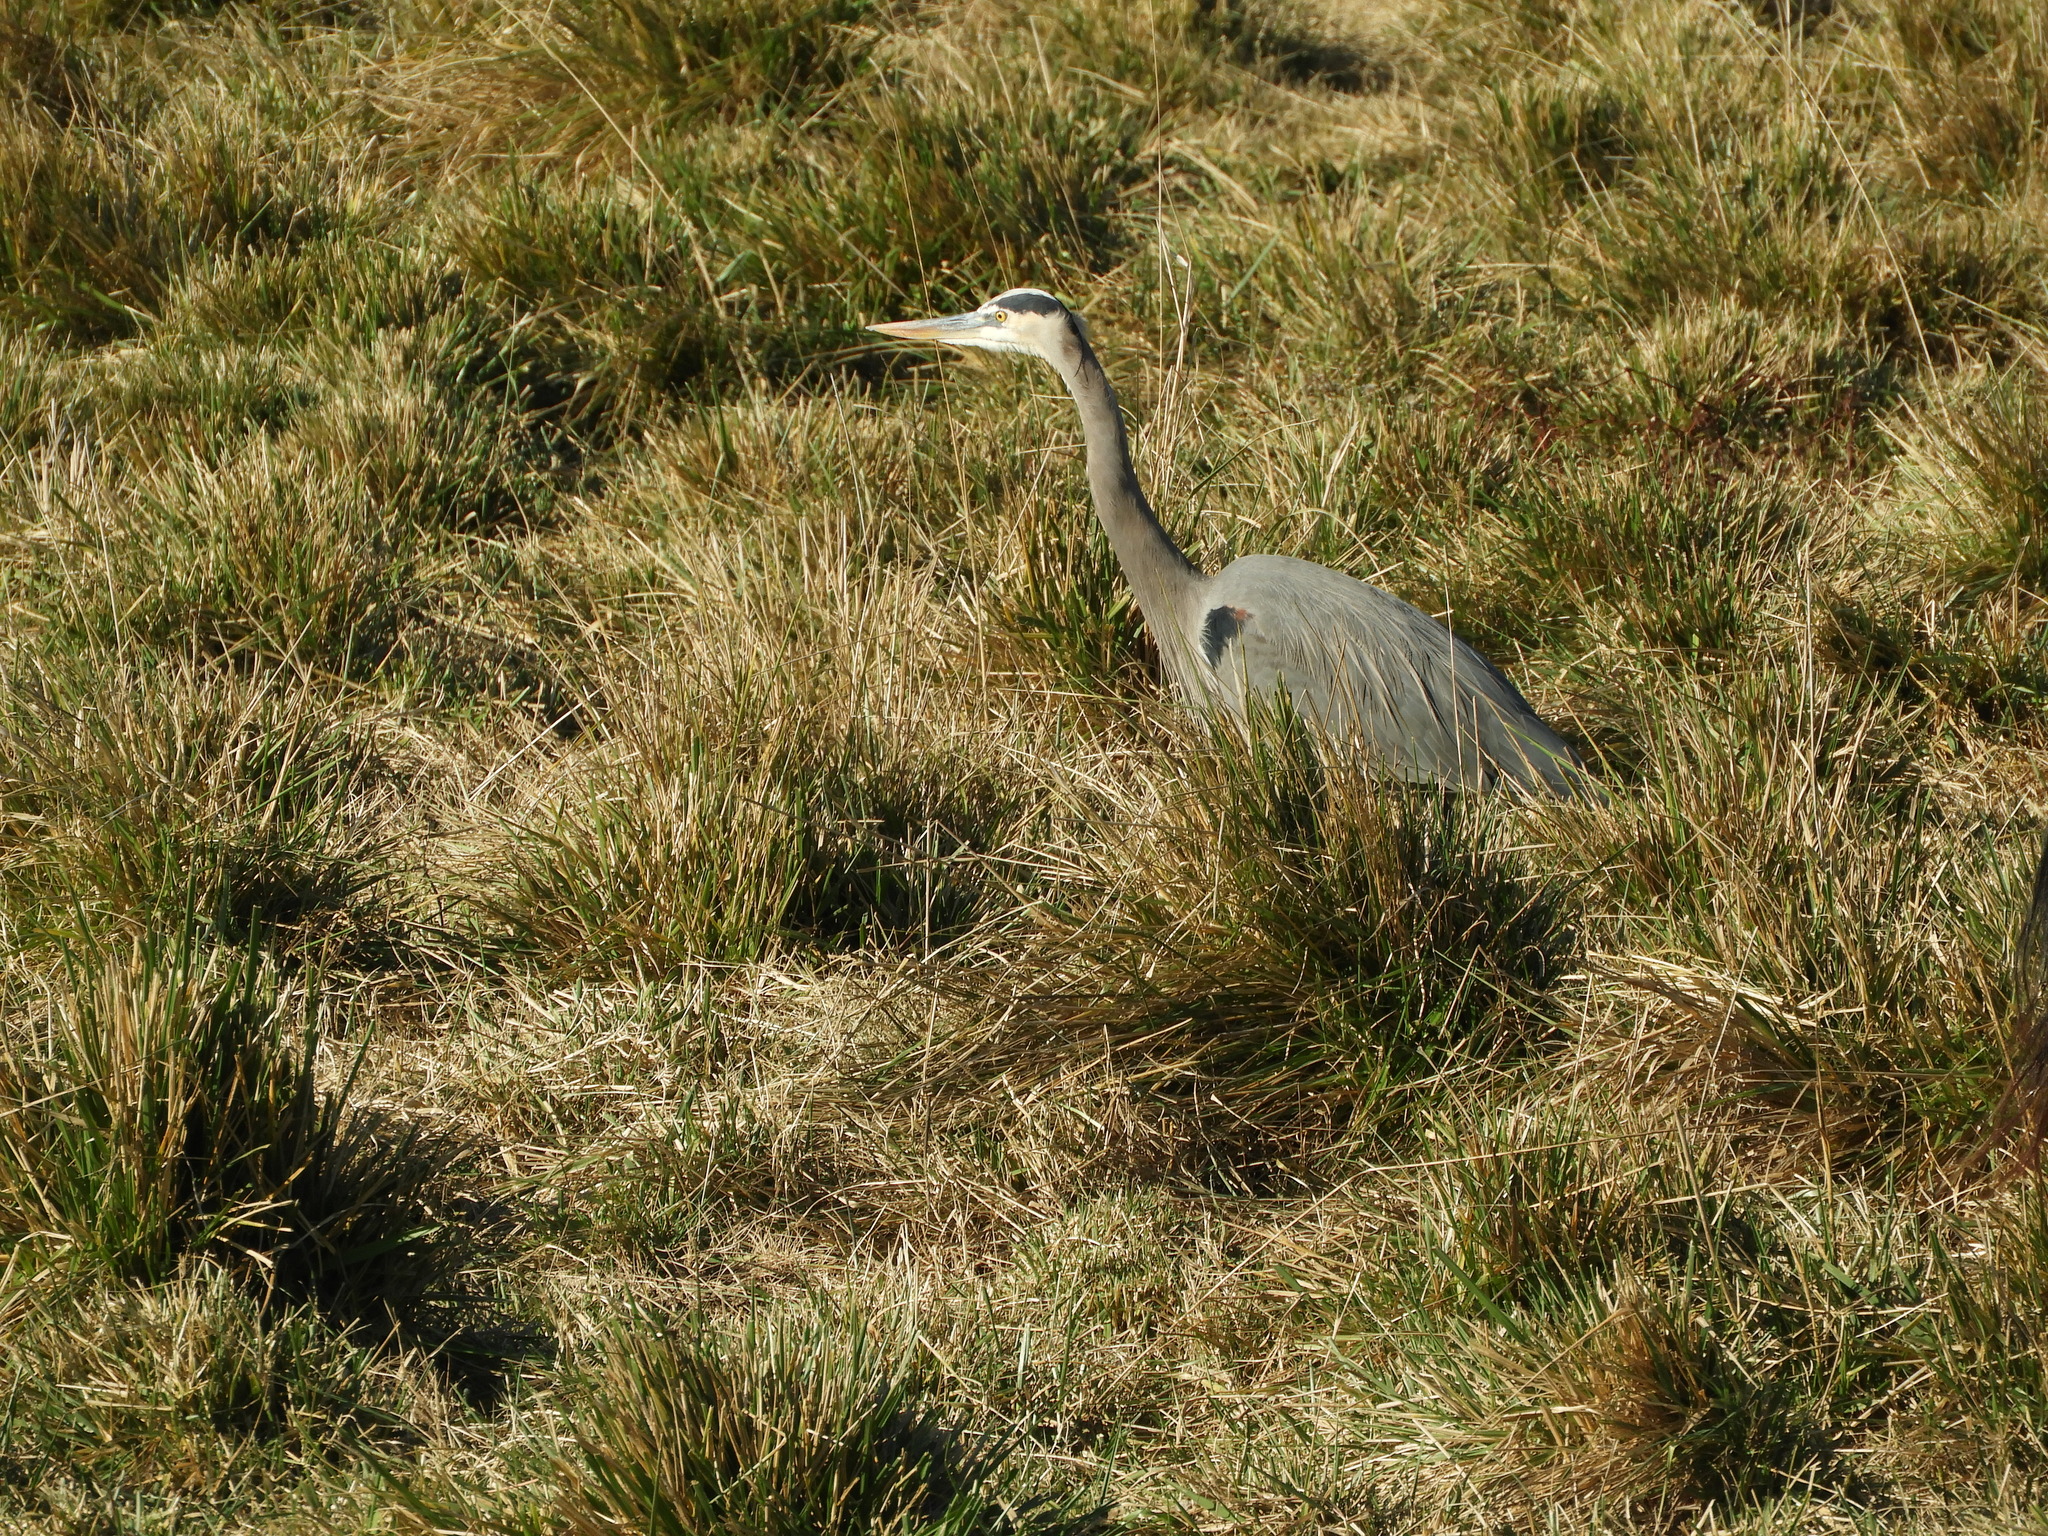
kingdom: Animalia
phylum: Chordata
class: Aves
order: Pelecaniformes
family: Ardeidae
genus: Ardea
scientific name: Ardea herodias
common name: Great blue heron
